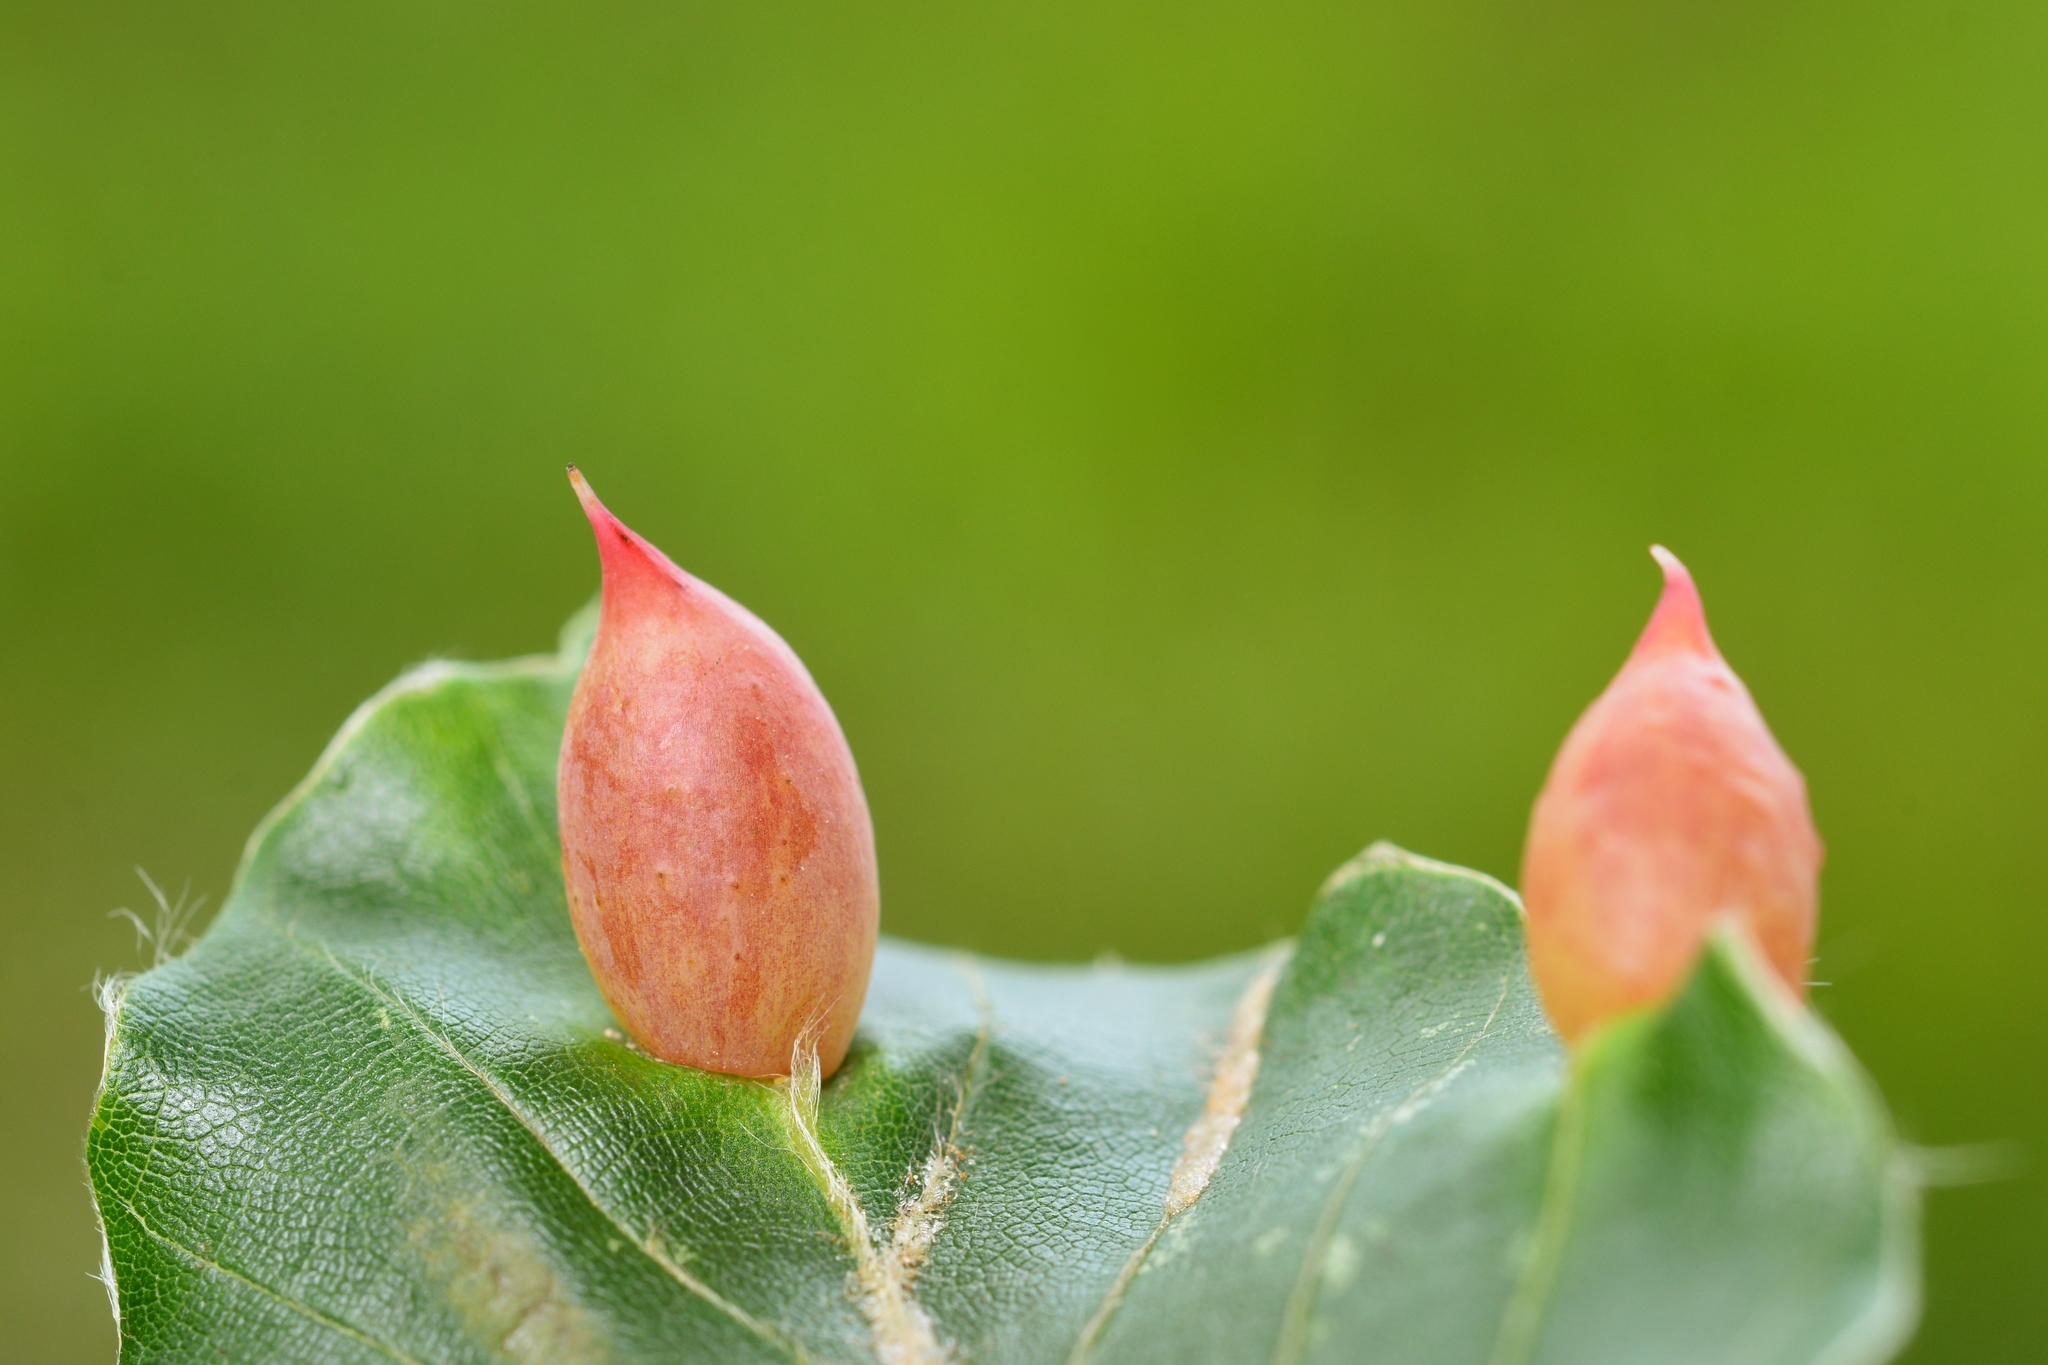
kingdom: Animalia
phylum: Arthropoda
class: Insecta
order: Diptera
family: Cecidomyiidae
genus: Mikiola
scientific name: Mikiola fagi
